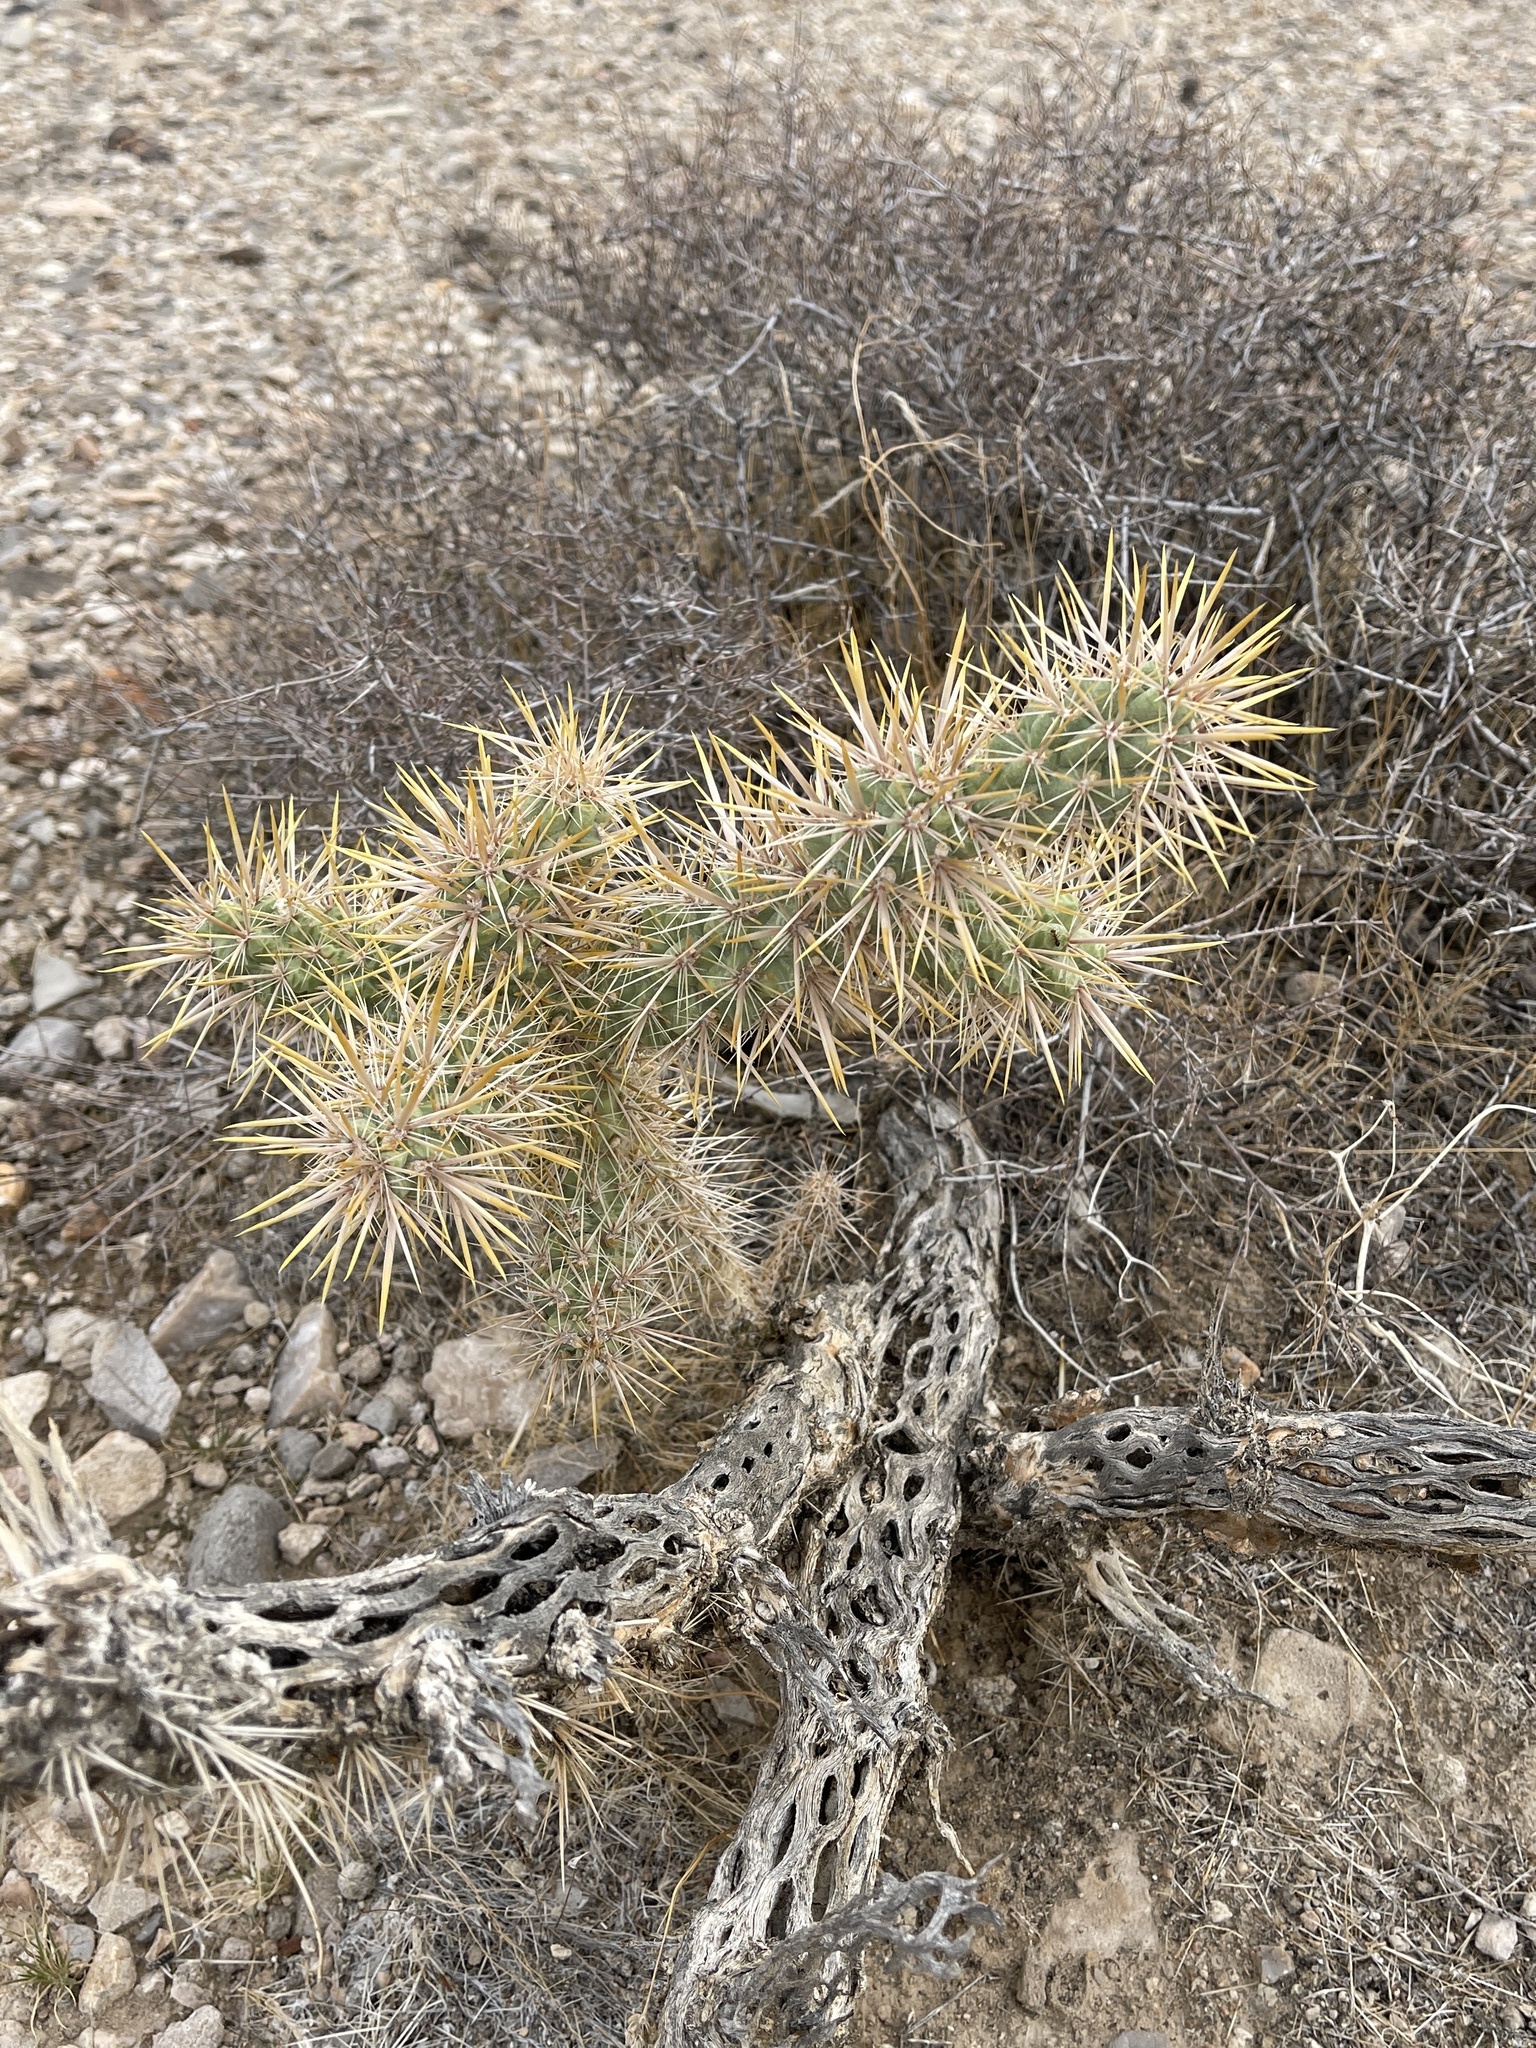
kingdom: Plantae
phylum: Tracheophyta
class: Magnoliopsida
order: Caryophyllales
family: Cactaceae
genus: Cylindropuntia
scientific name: Cylindropuntia echinocarpa
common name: Ground cholla
